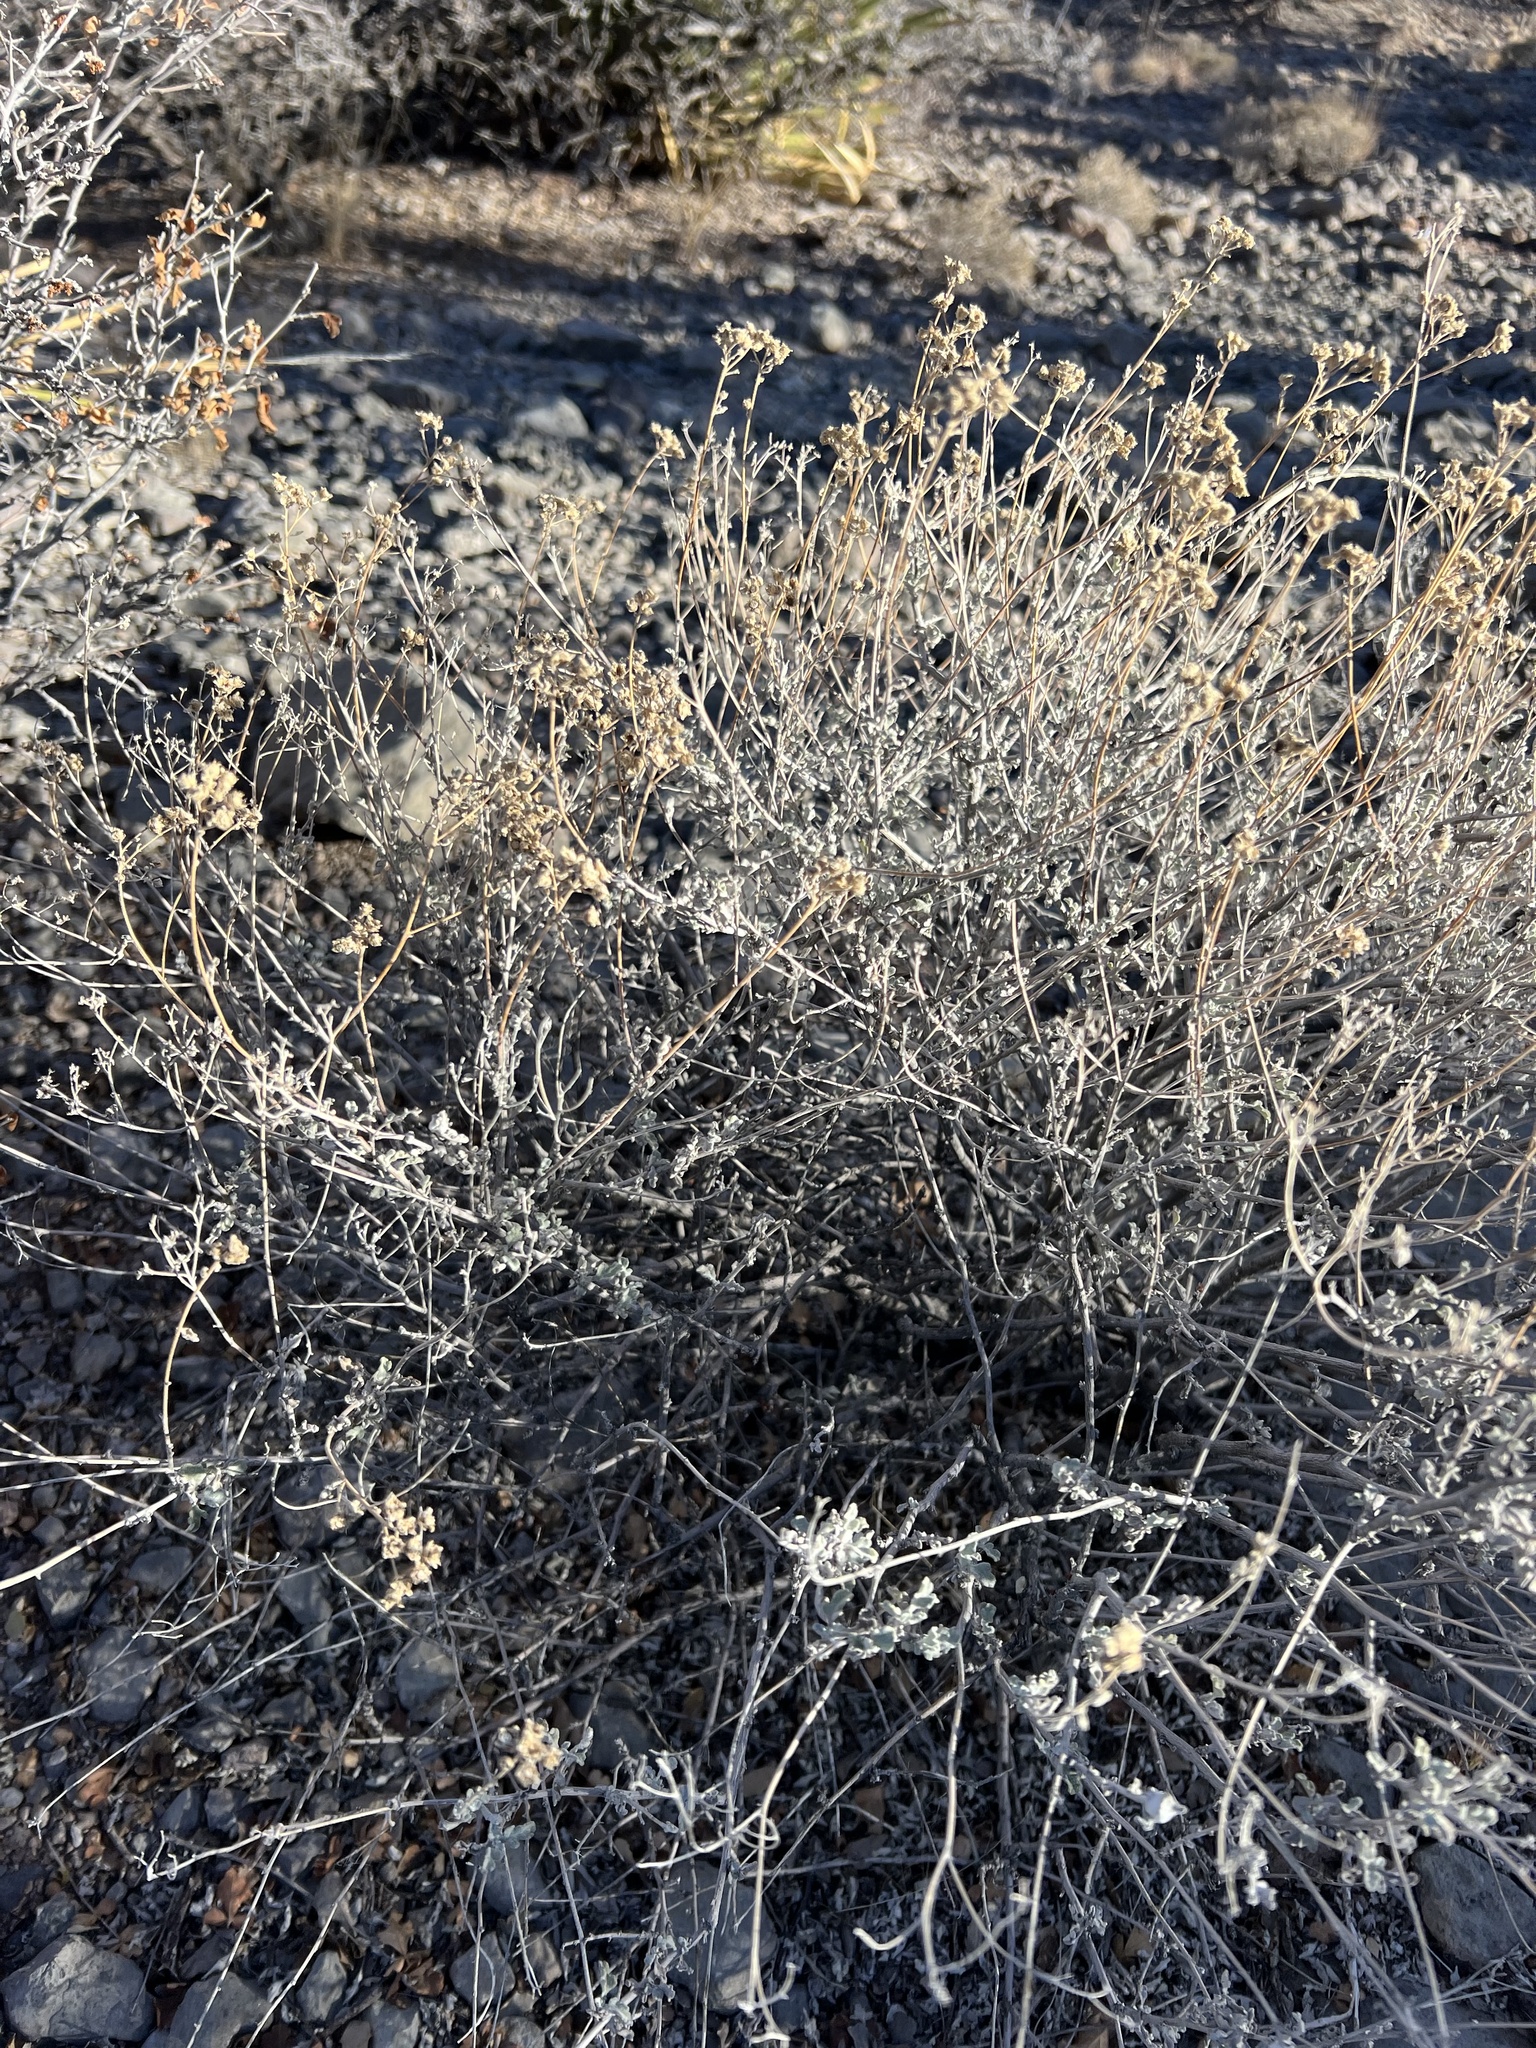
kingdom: Plantae
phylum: Tracheophyta
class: Magnoliopsida
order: Asterales
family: Asteraceae
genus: Parthenium
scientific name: Parthenium incanum
